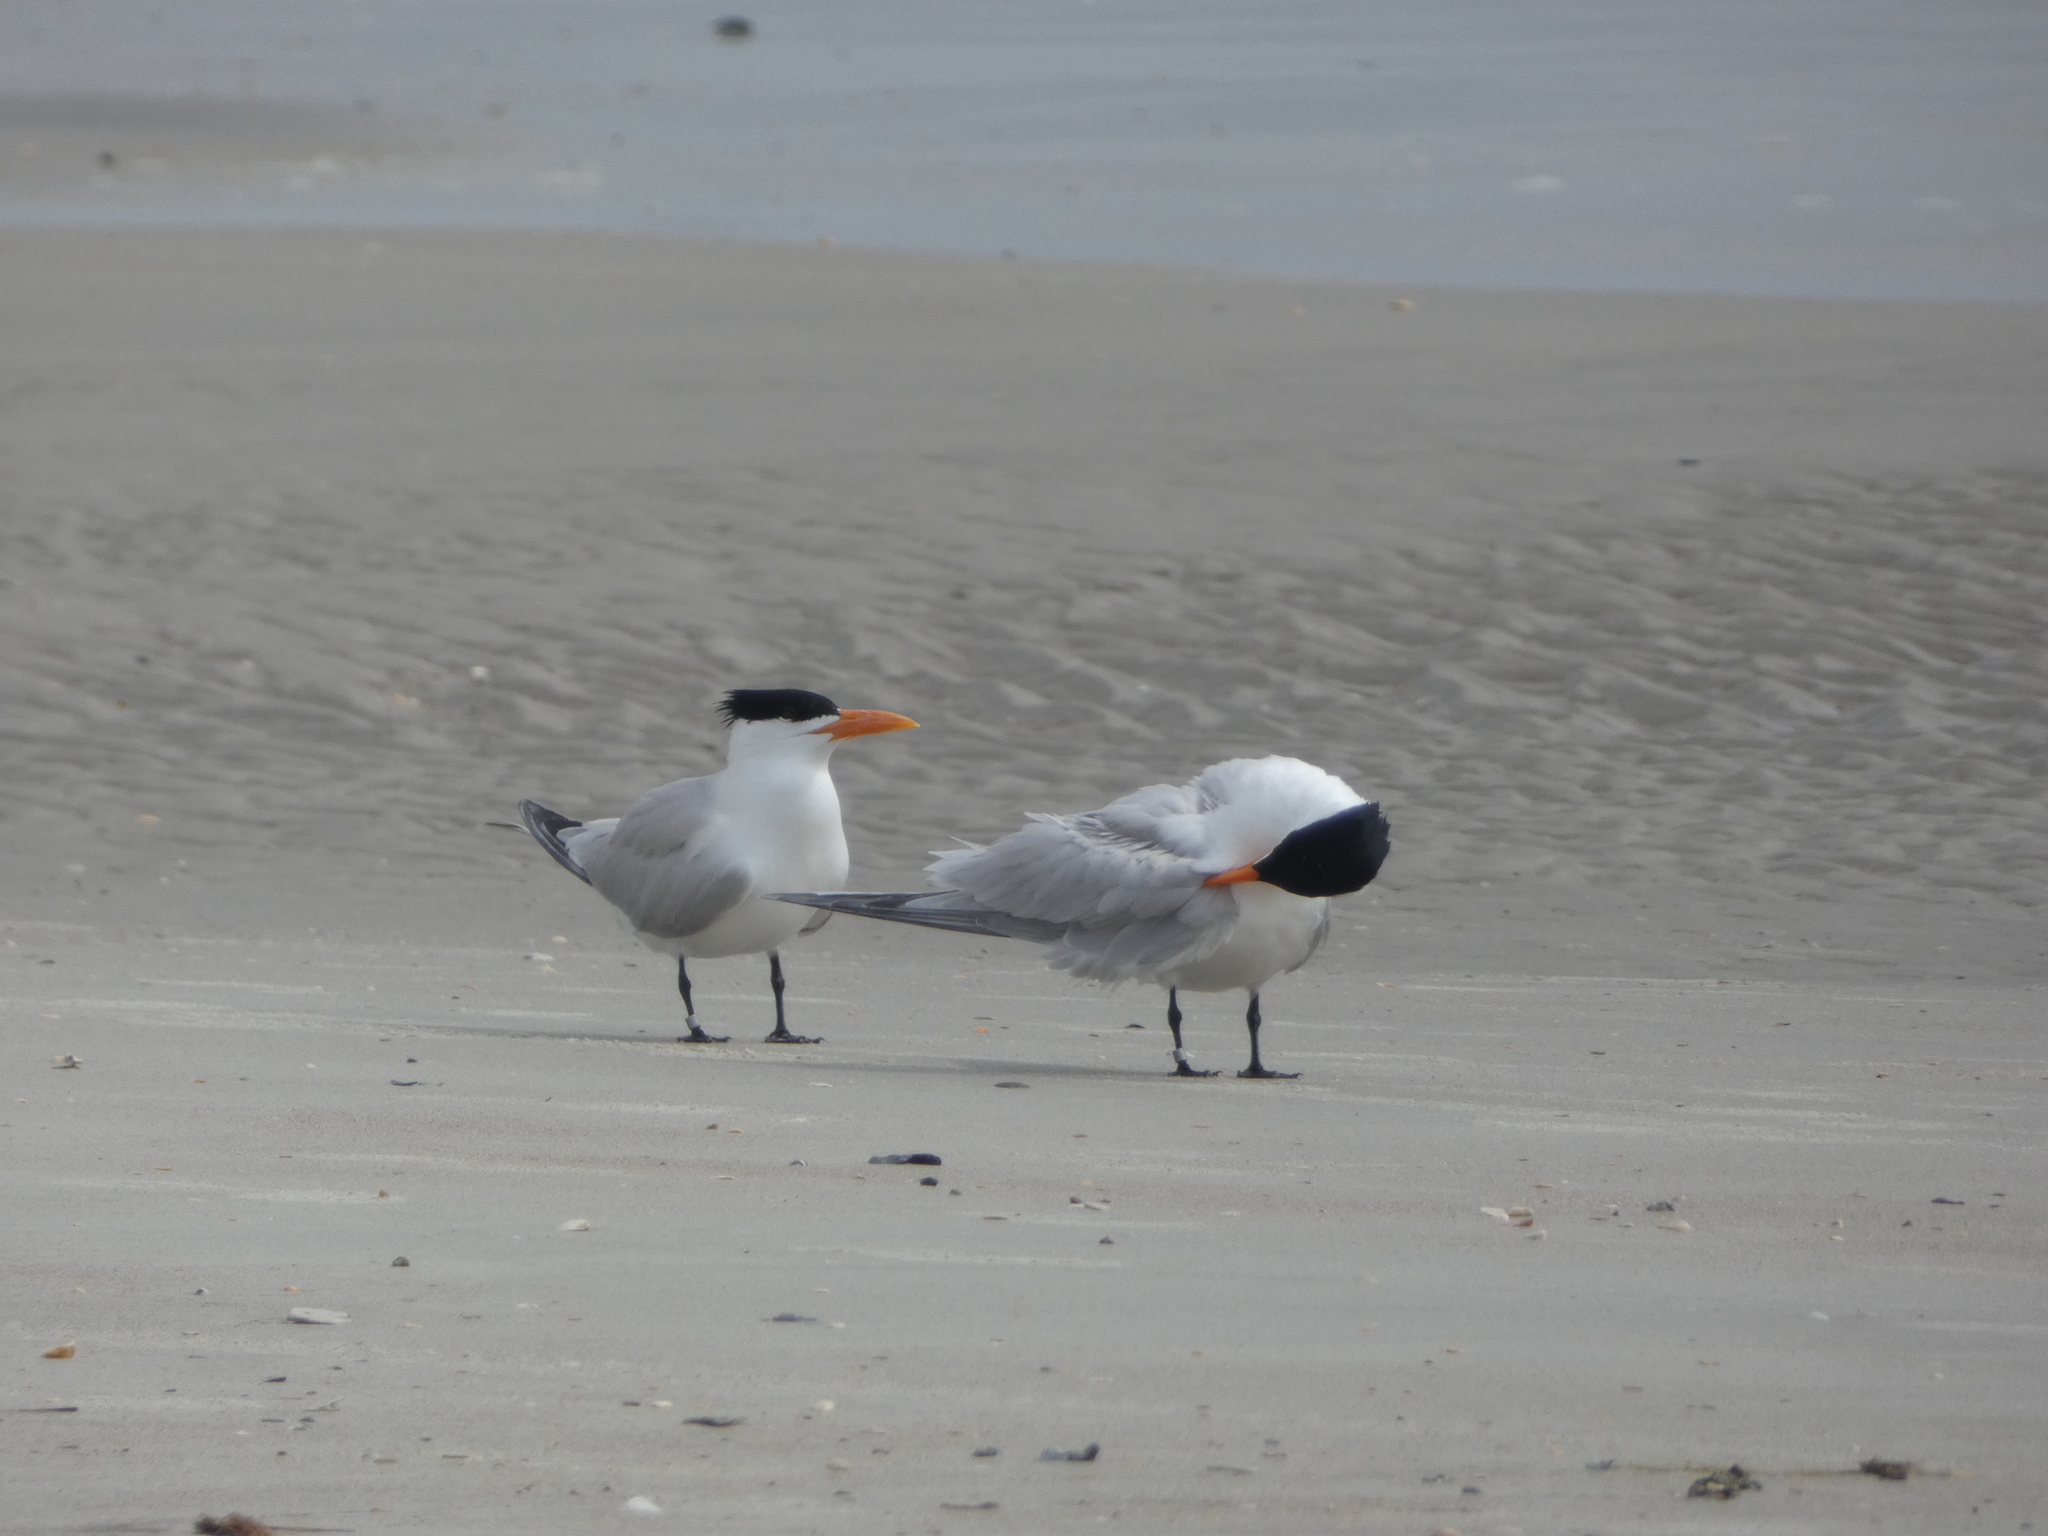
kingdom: Animalia
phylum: Chordata
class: Aves
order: Charadriiformes
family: Laridae
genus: Thalasseus
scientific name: Thalasseus maximus
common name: Royal tern
